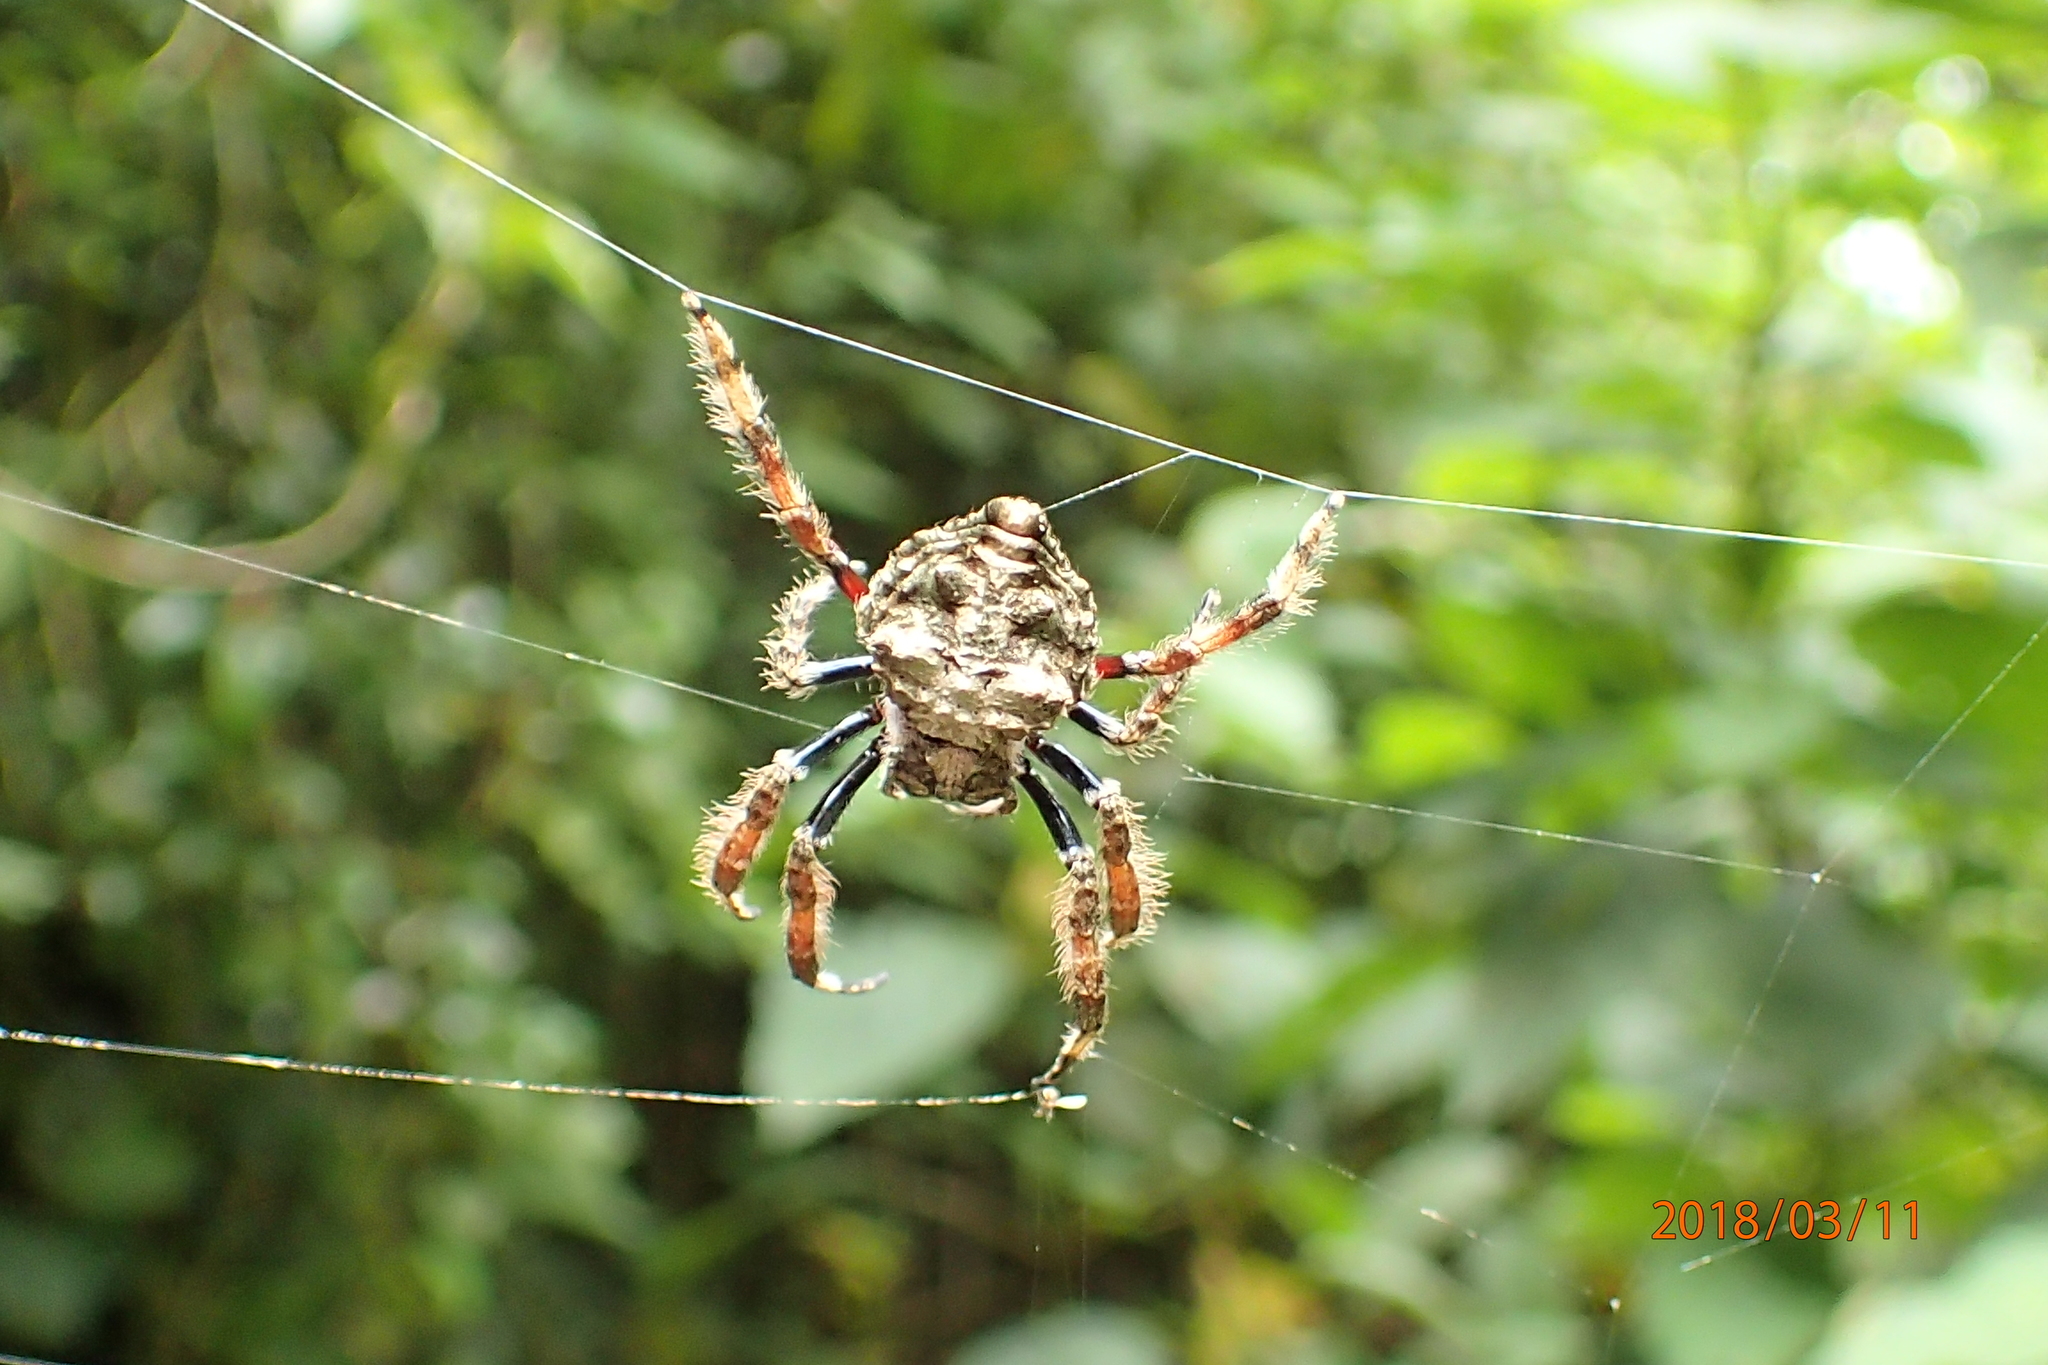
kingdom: Animalia
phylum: Arthropoda
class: Arachnida
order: Araneae
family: Araneidae
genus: Caerostris
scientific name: Caerostris sexcuspidata
